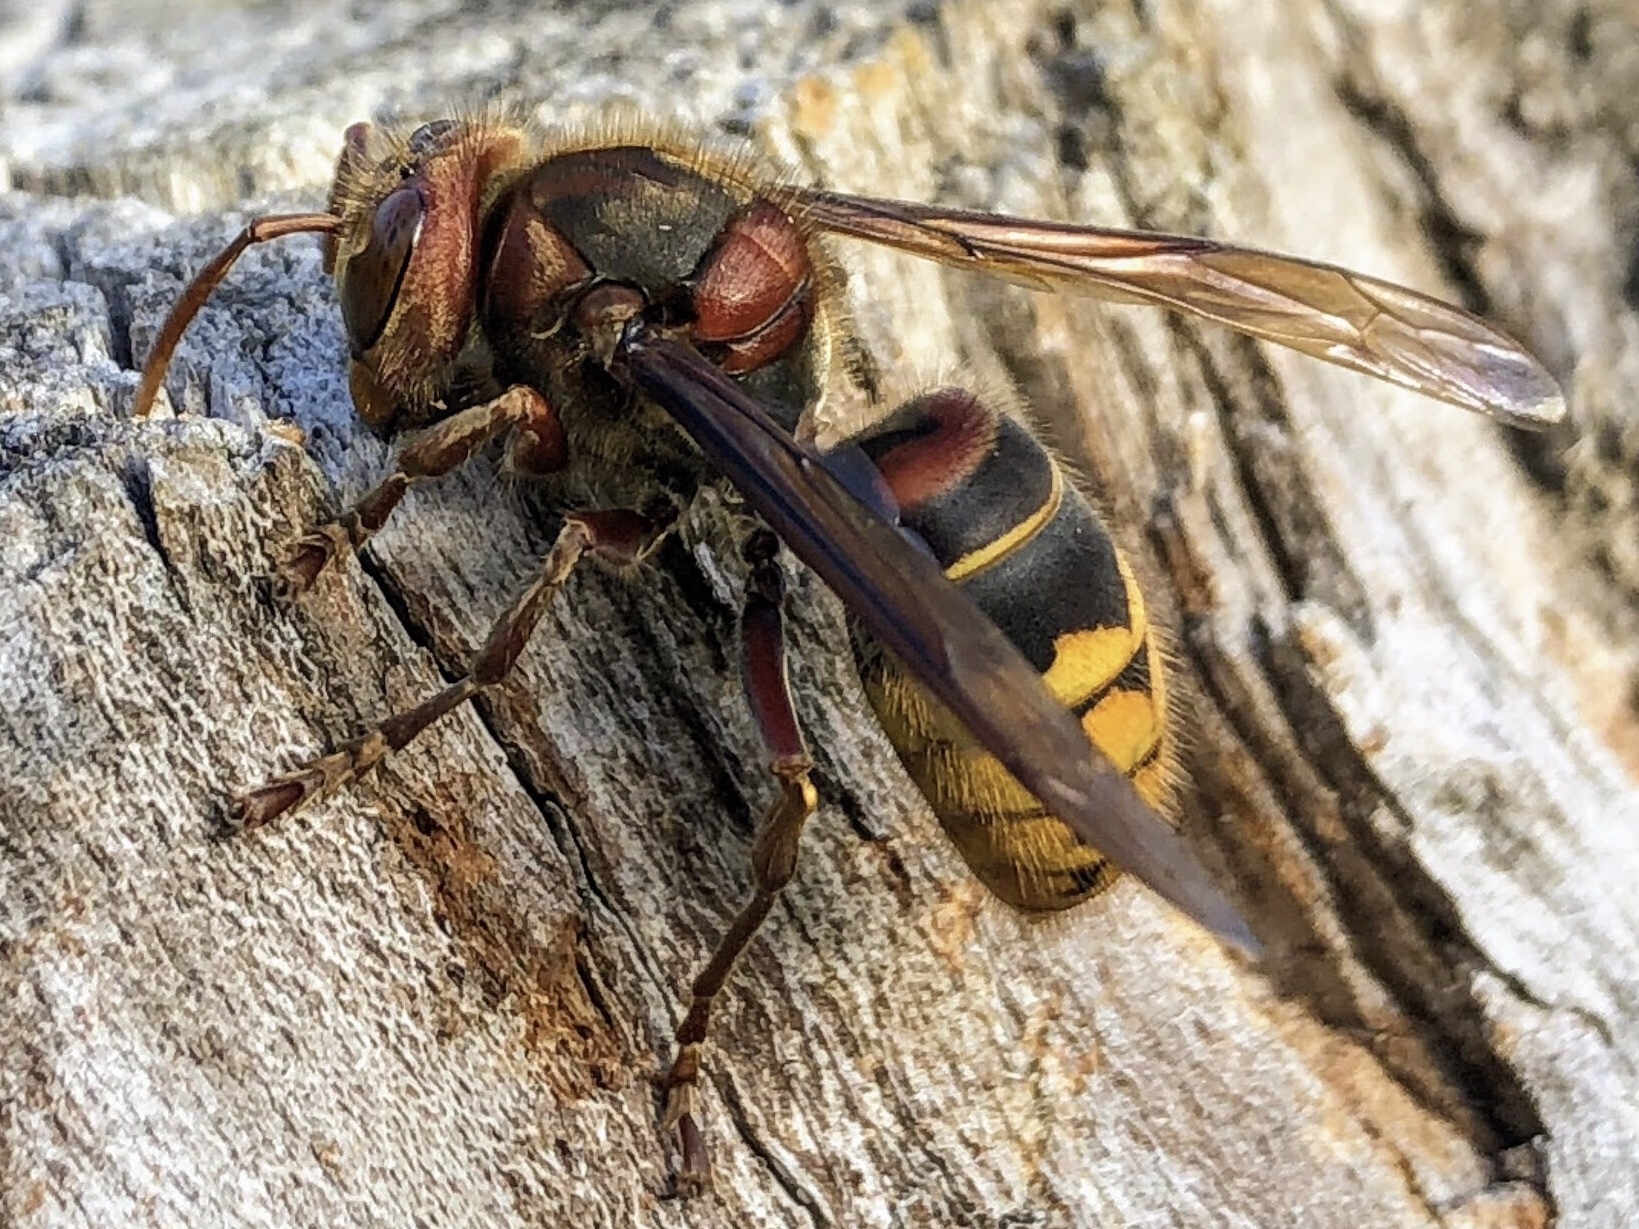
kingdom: Animalia
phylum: Arthropoda
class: Insecta
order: Hymenoptera
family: Vespidae
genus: Vespa
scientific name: Vespa crabro
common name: Hornet
